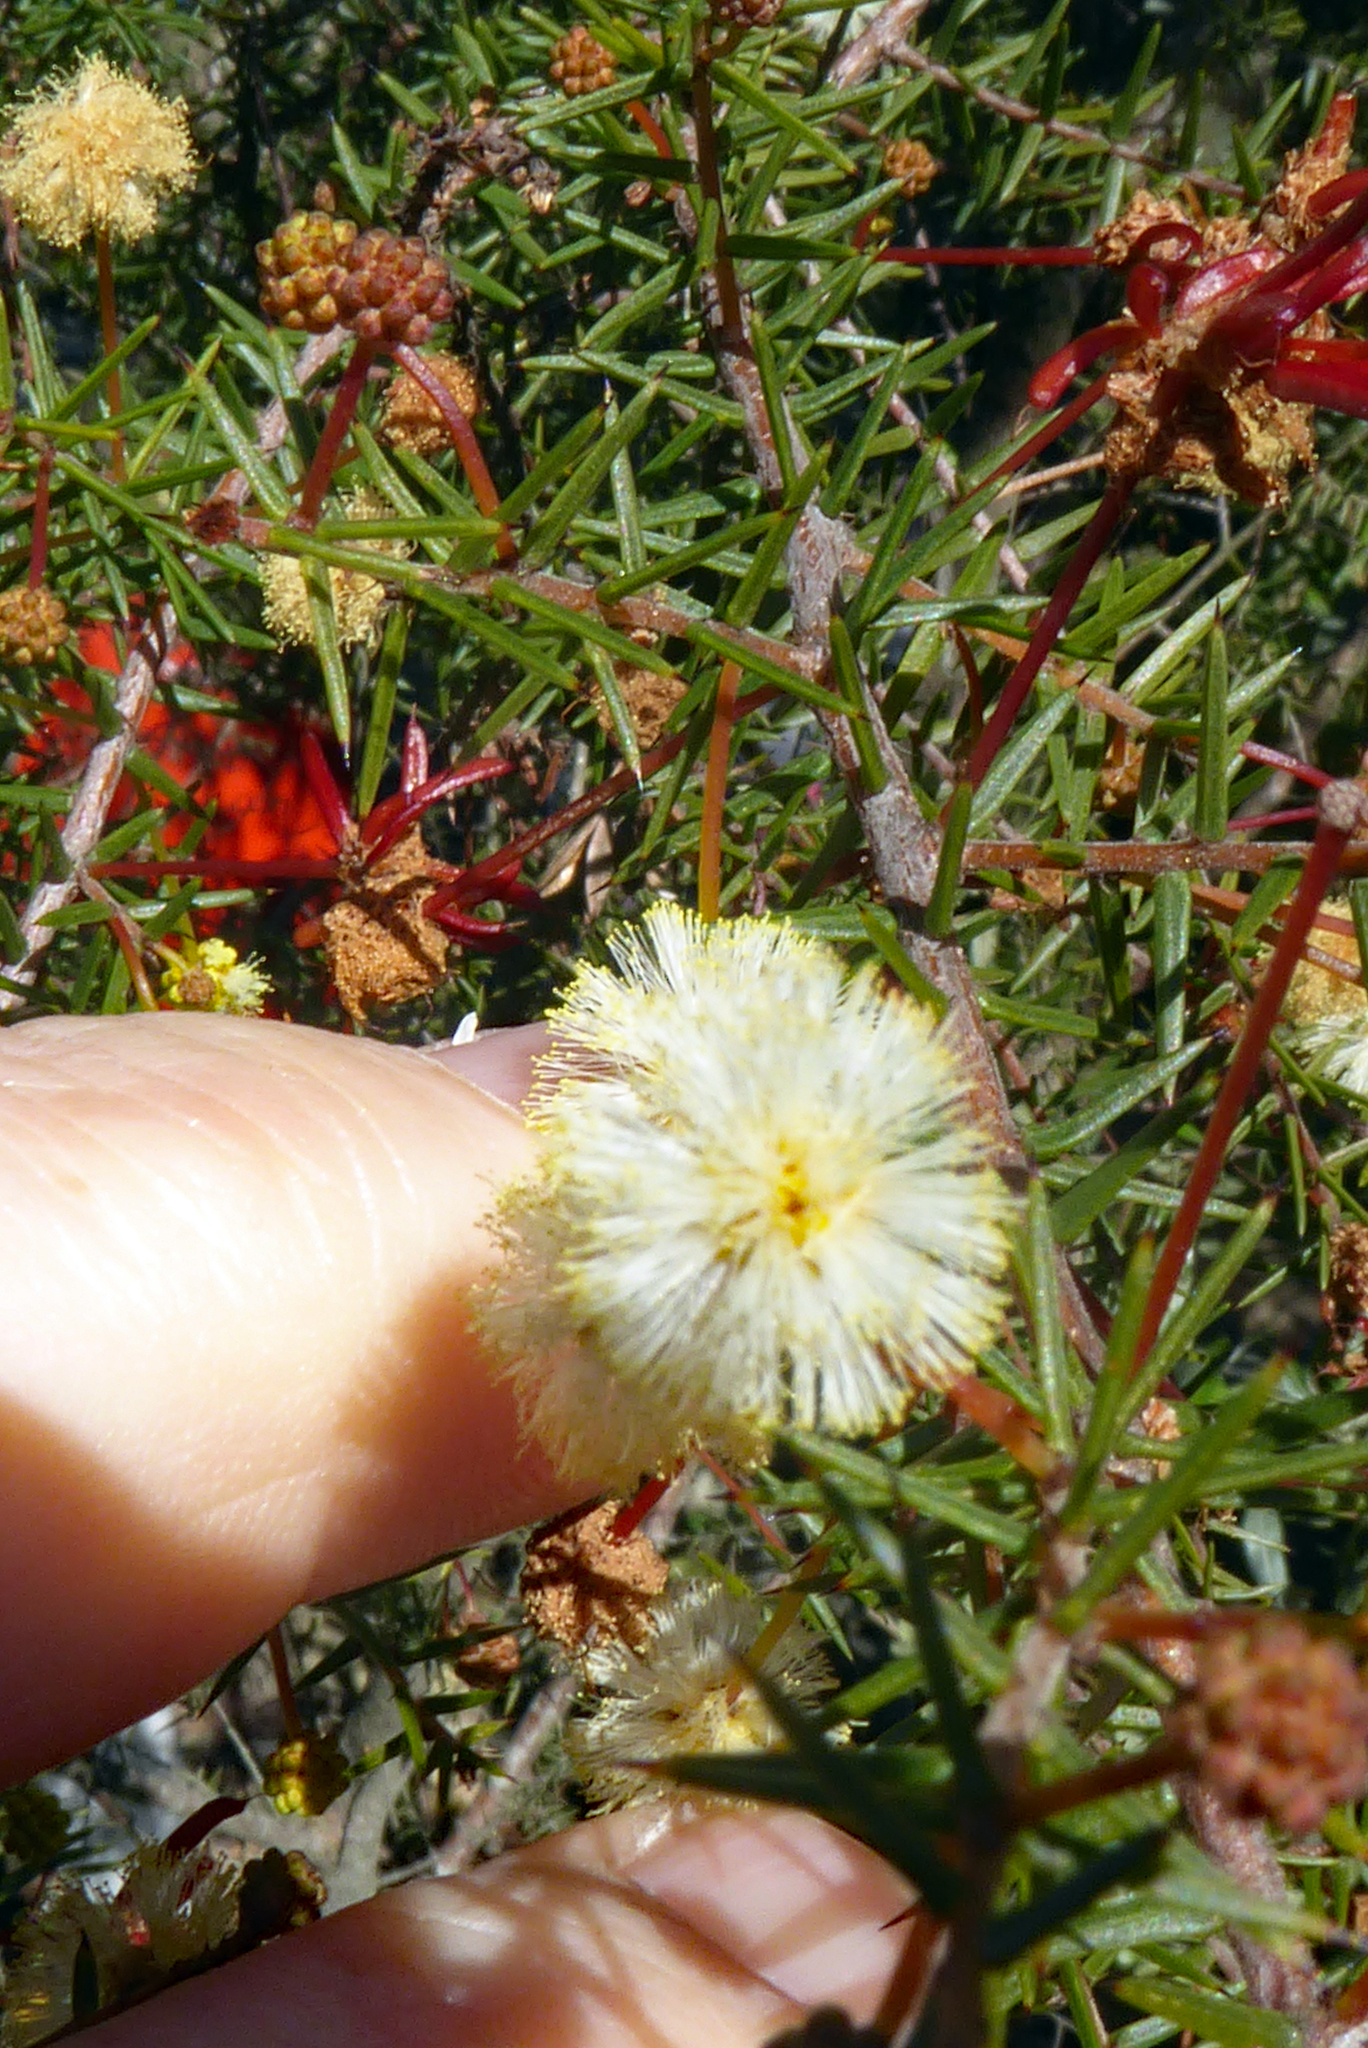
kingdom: Plantae
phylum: Tracheophyta
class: Magnoliopsida
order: Fabales
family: Fabaceae
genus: Acacia
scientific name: Acacia ulicifolia
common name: Juniper wattle
